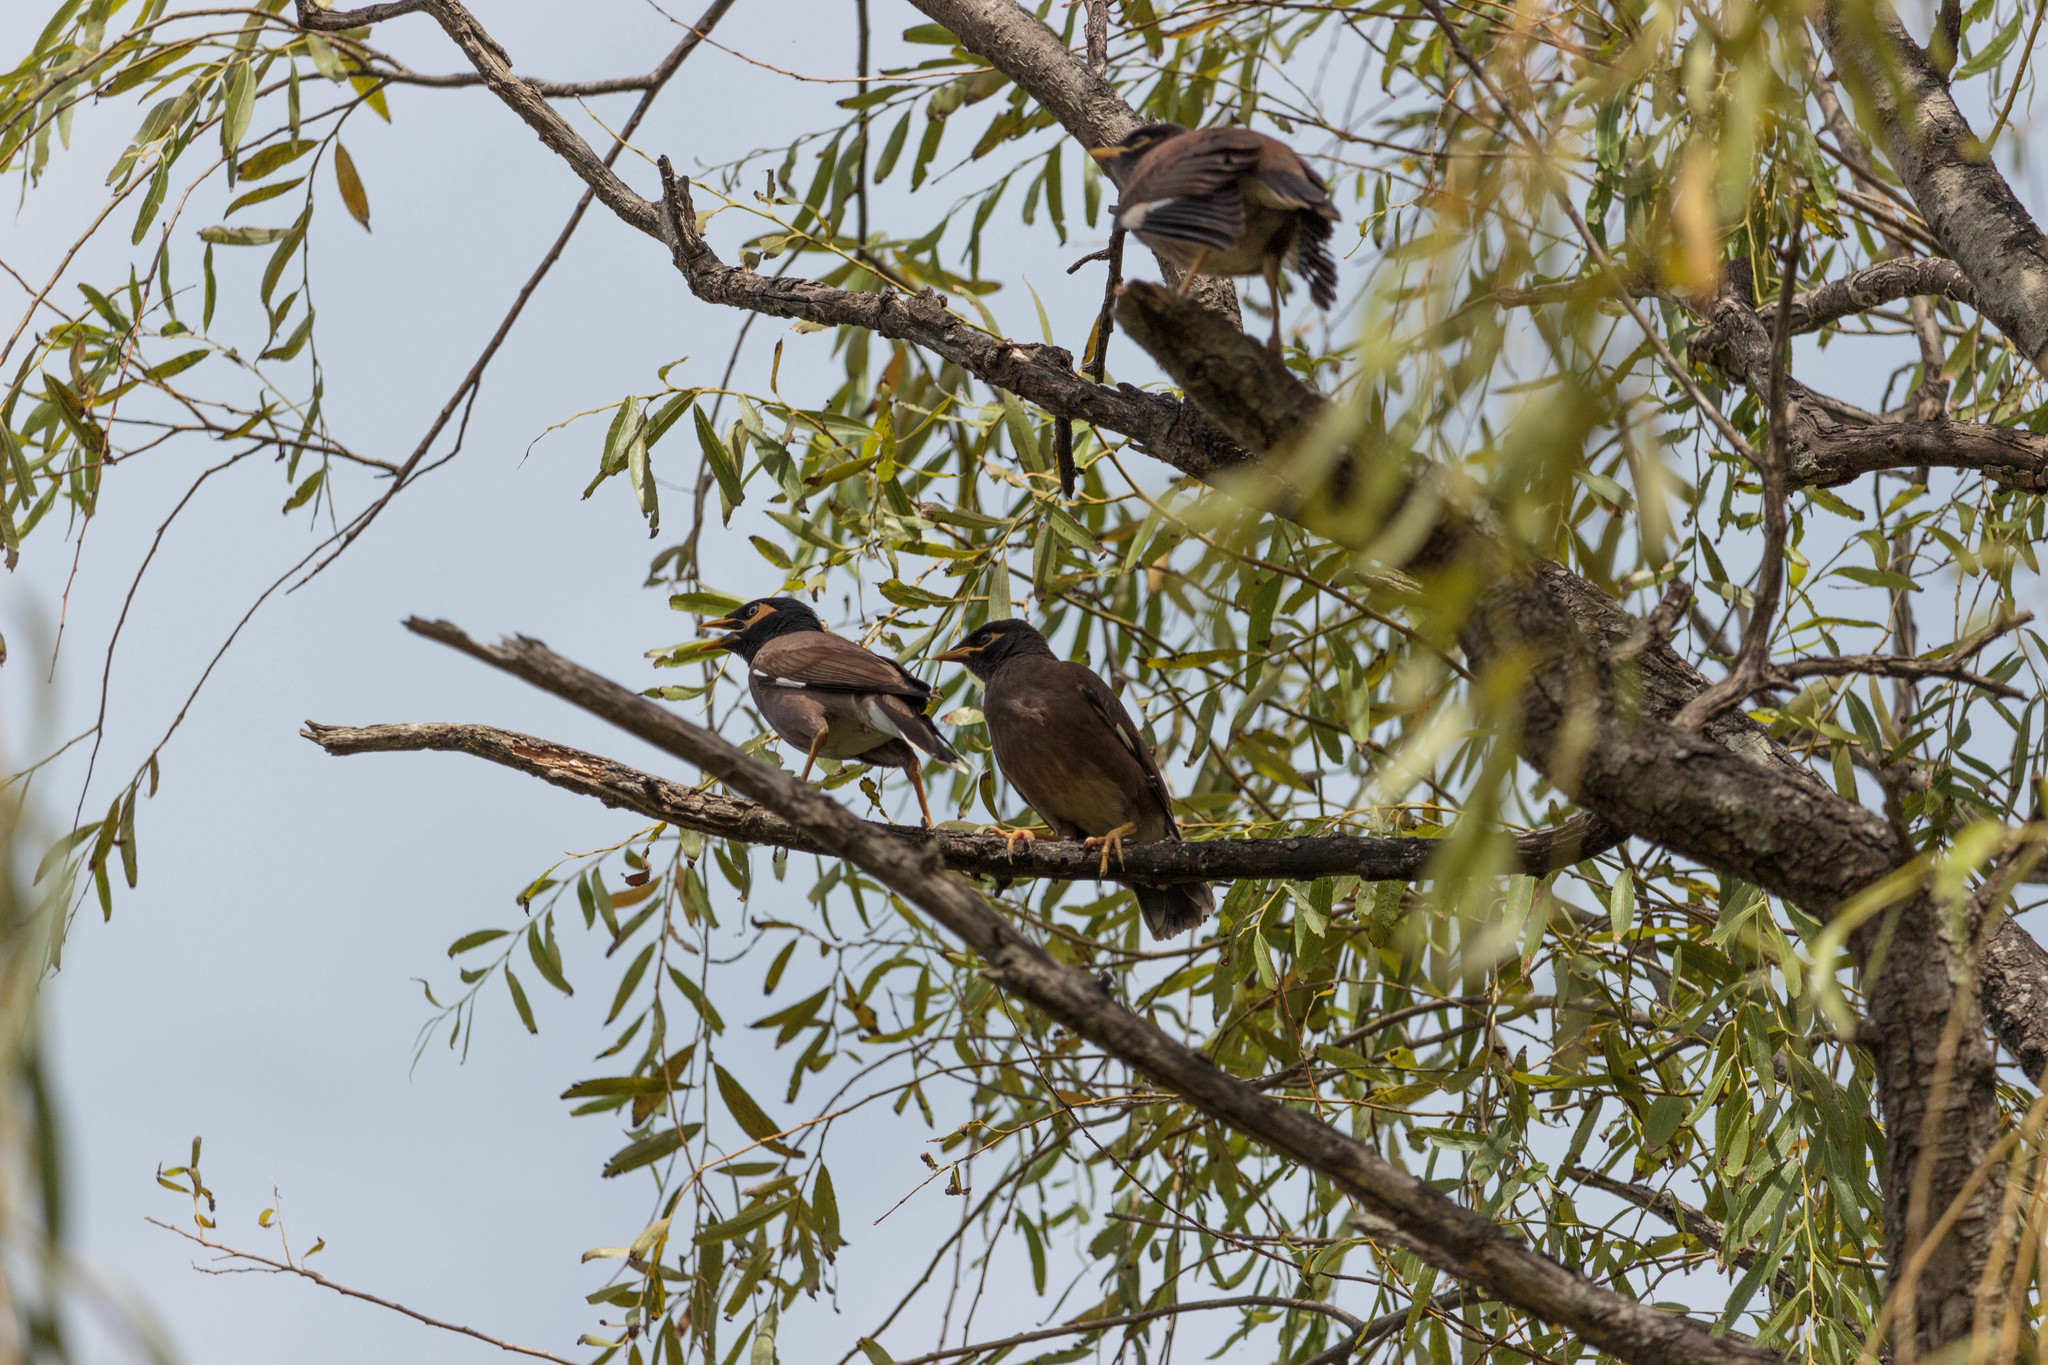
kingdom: Animalia
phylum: Chordata
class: Aves
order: Passeriformes
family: Sturnidae
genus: Acridotheres
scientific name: Acridotheres tristis
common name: Common myna
